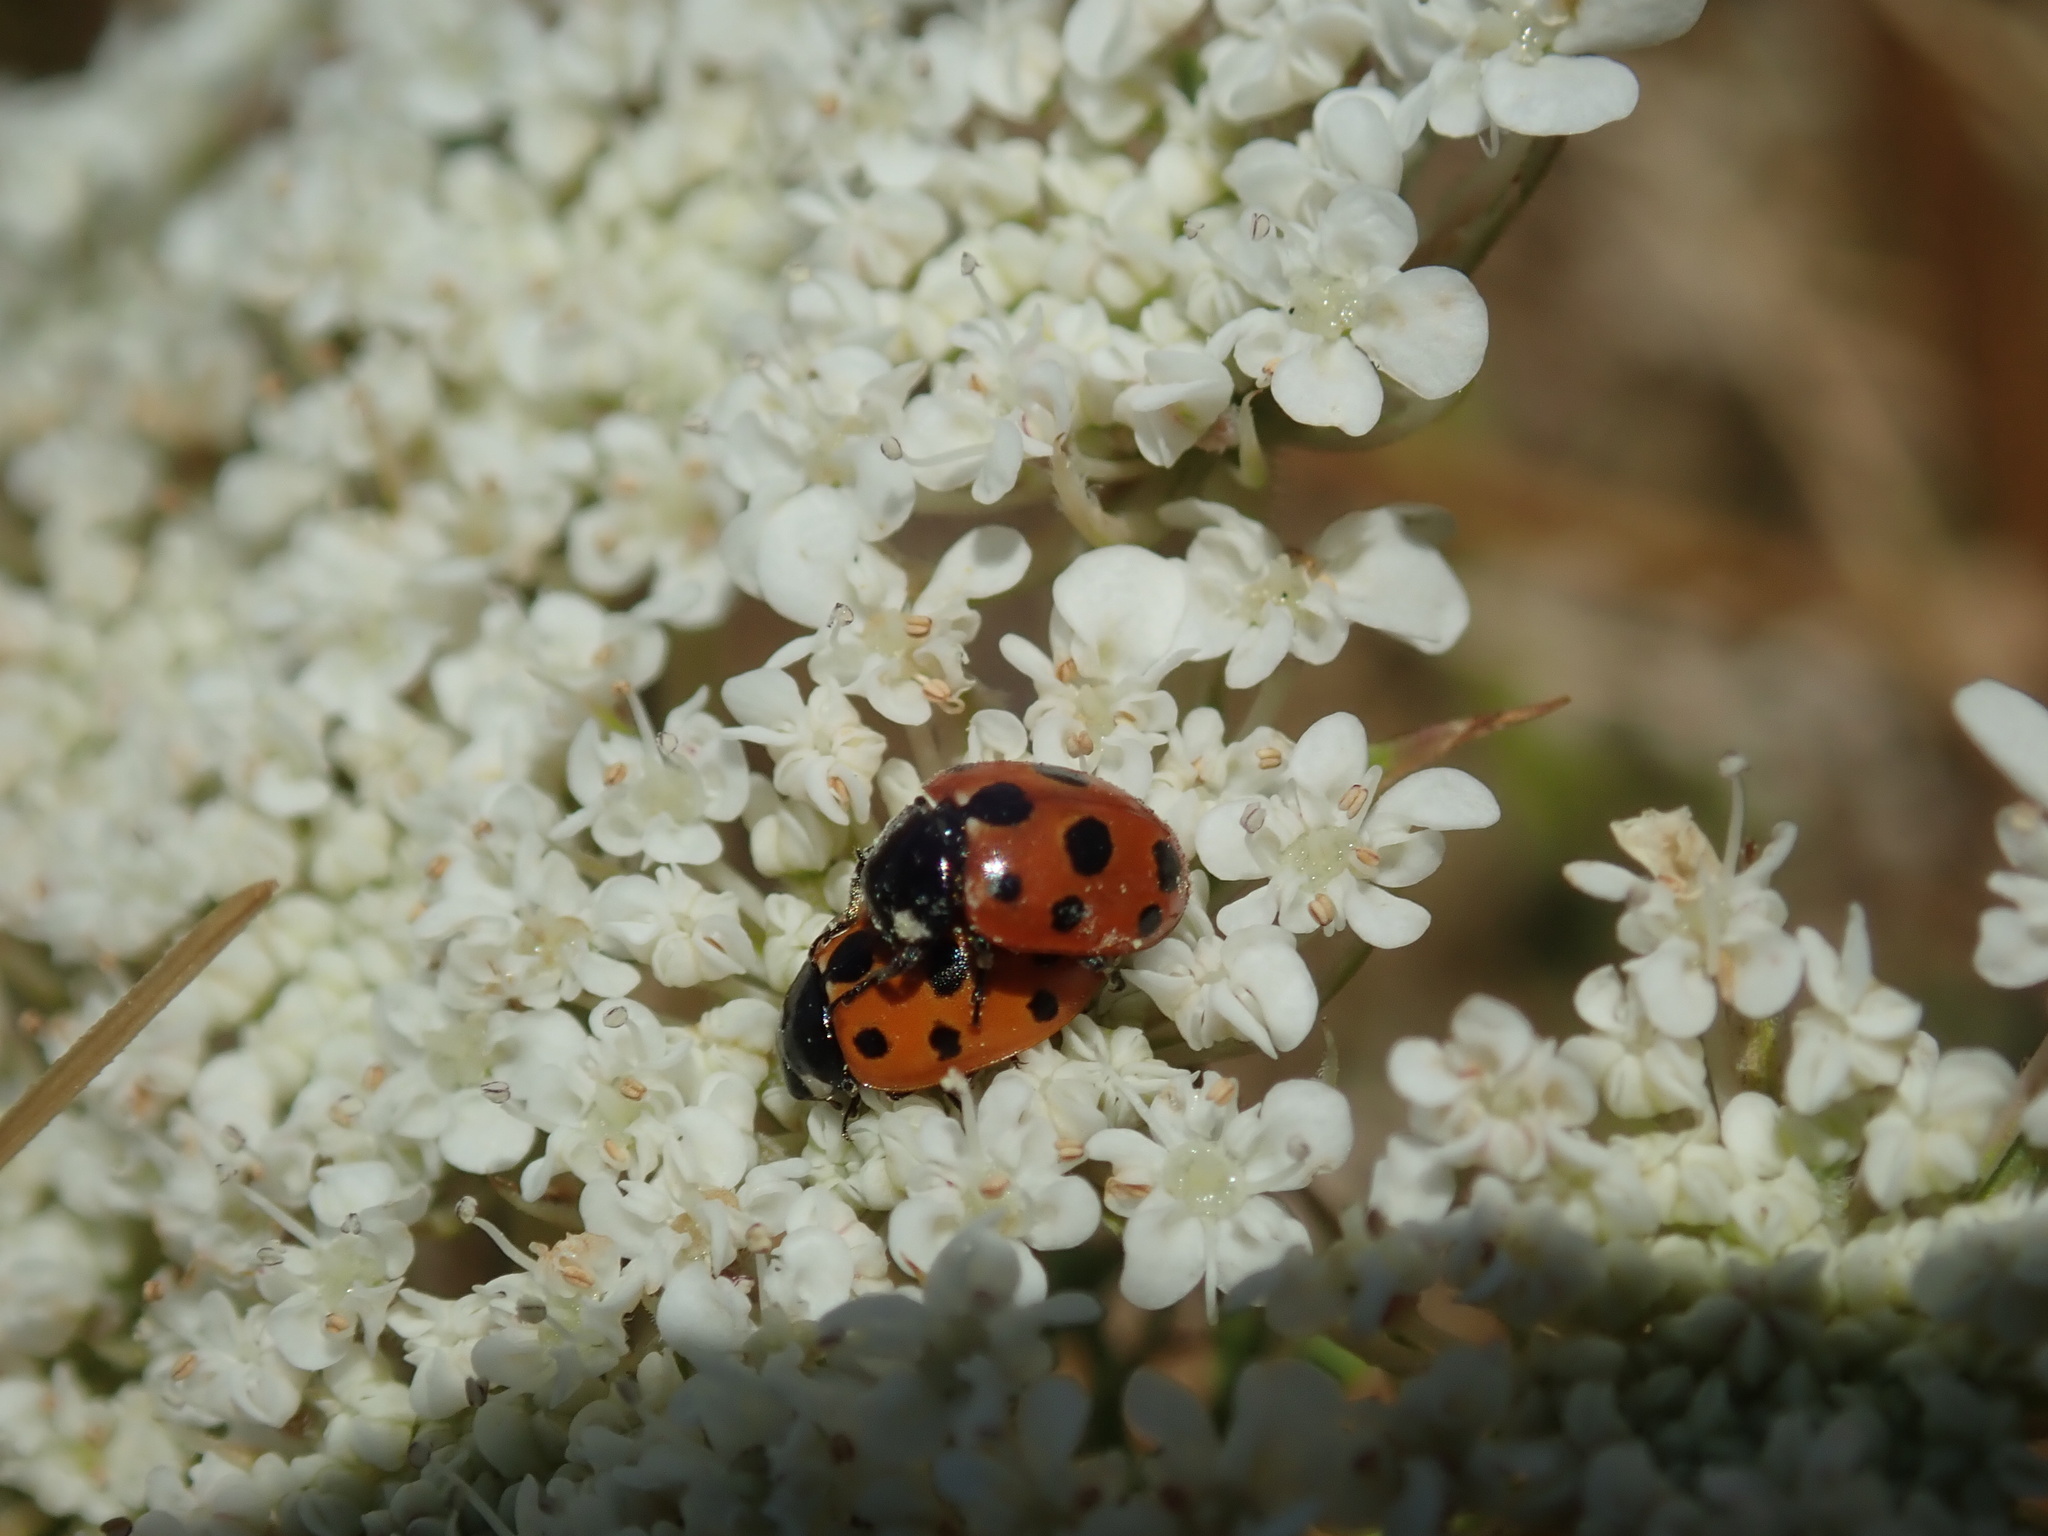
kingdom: Animalia
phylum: Arthropoda
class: Insecta
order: Coleoptera
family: Coccinellidae
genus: Coccinella
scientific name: Coccinella undecimpunctata
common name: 11-spot ladybird
